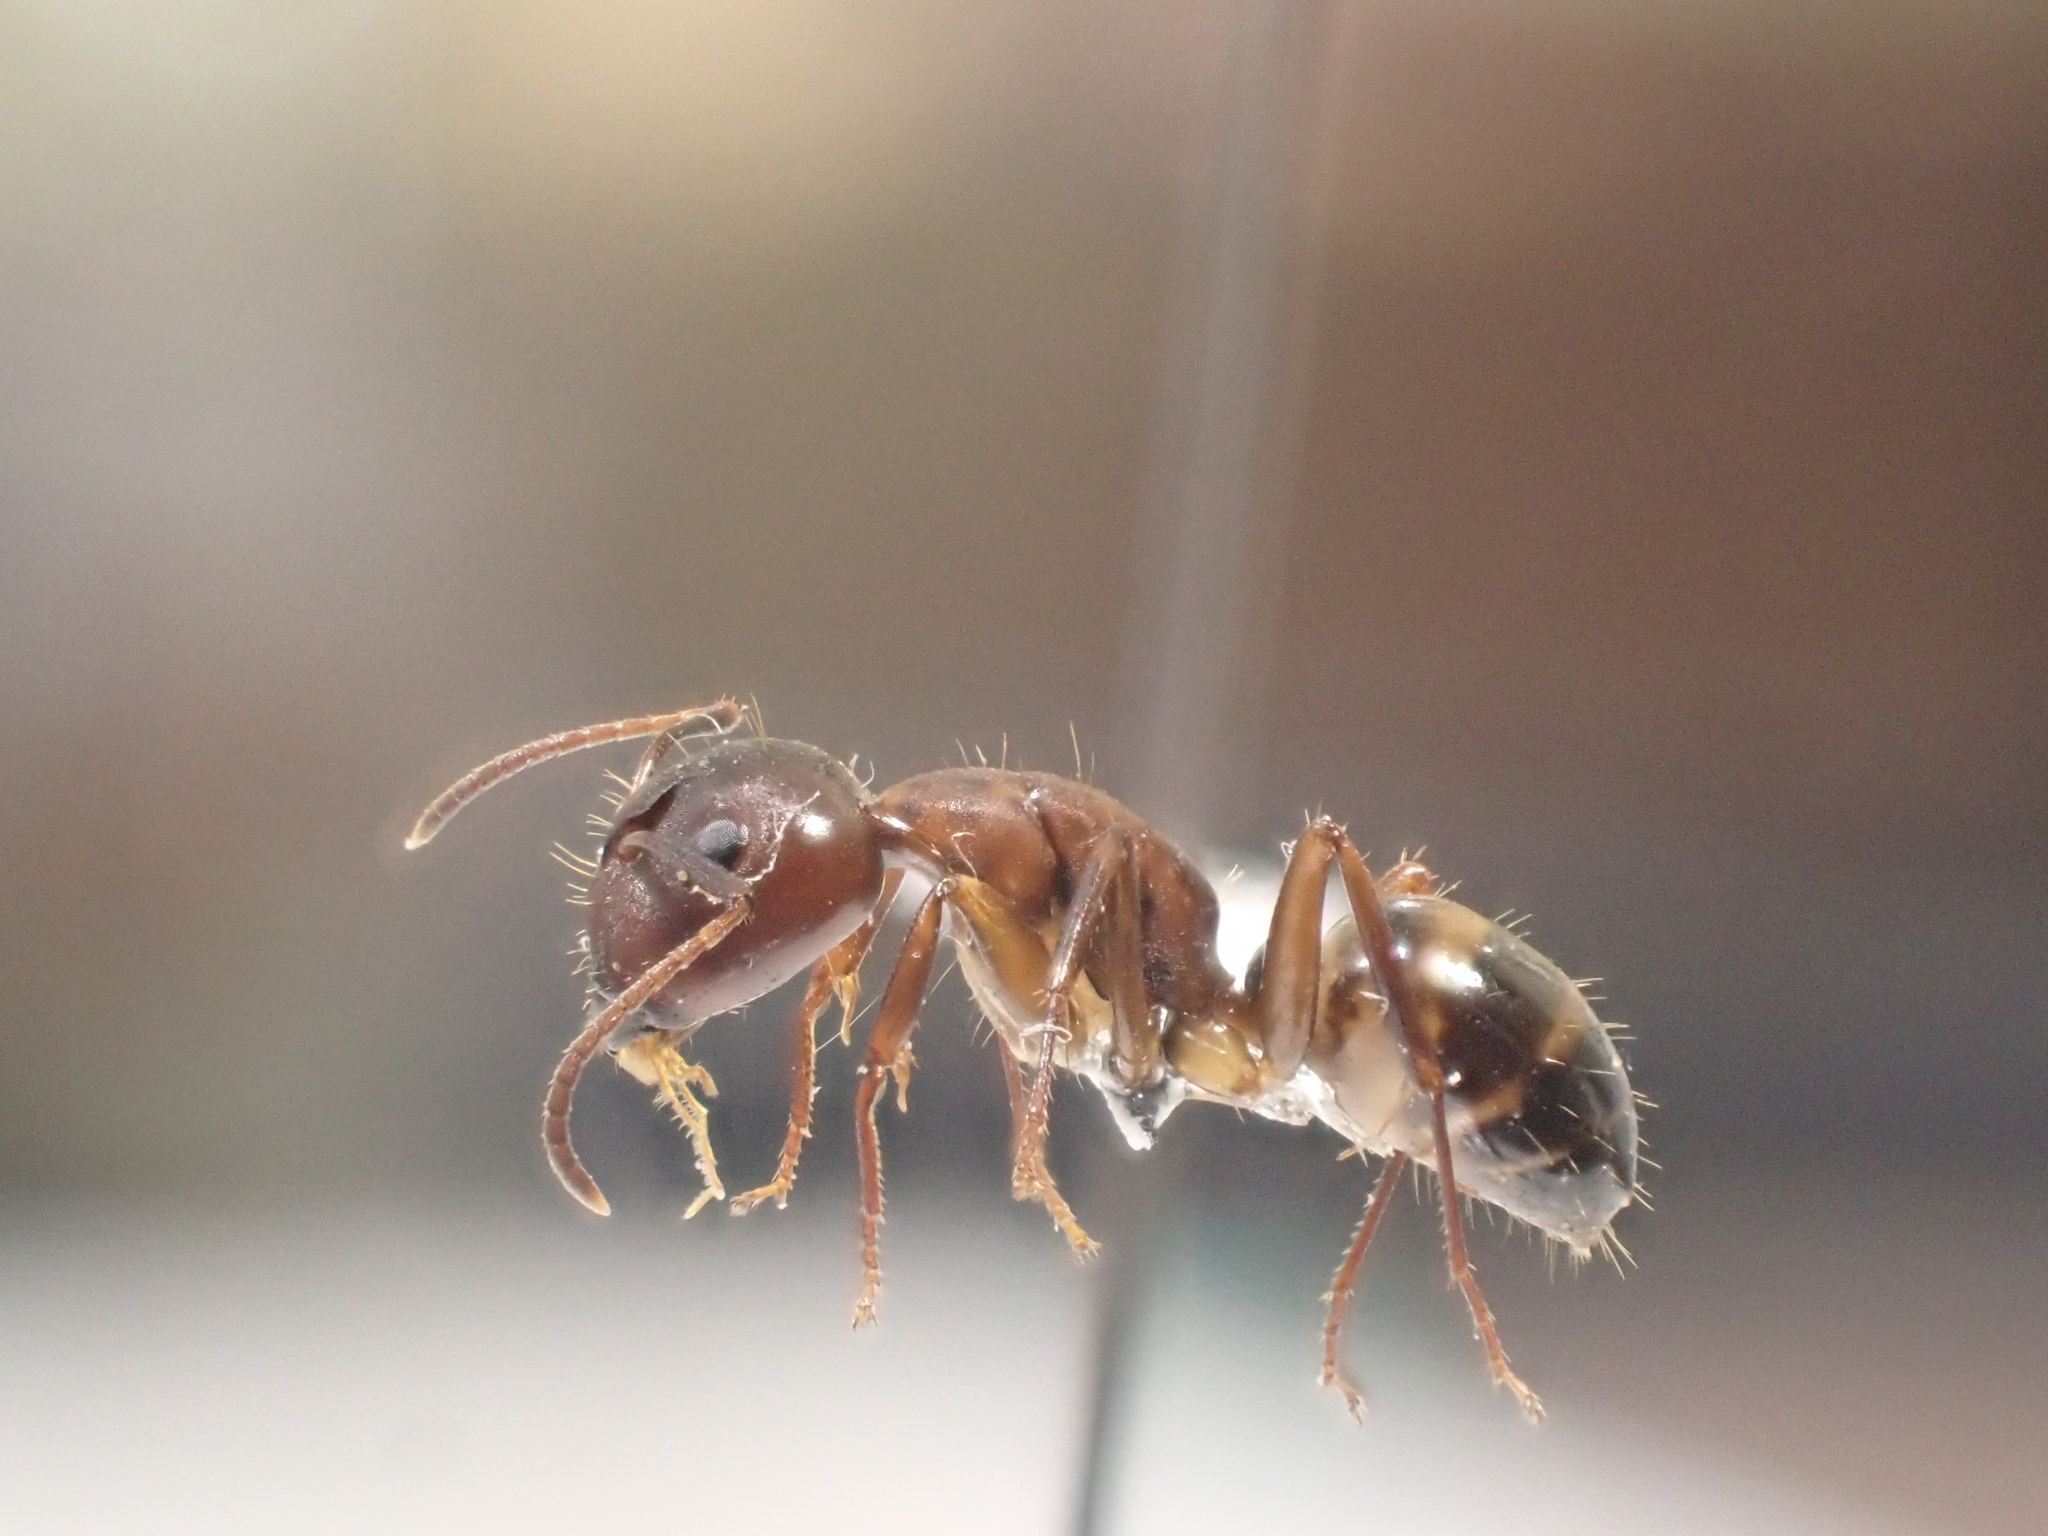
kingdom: Animalia
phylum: Arthropoda
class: Insecta
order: Hymenoptera
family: Formicidae
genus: Camponotus
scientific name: Camponotus subbarbatus
